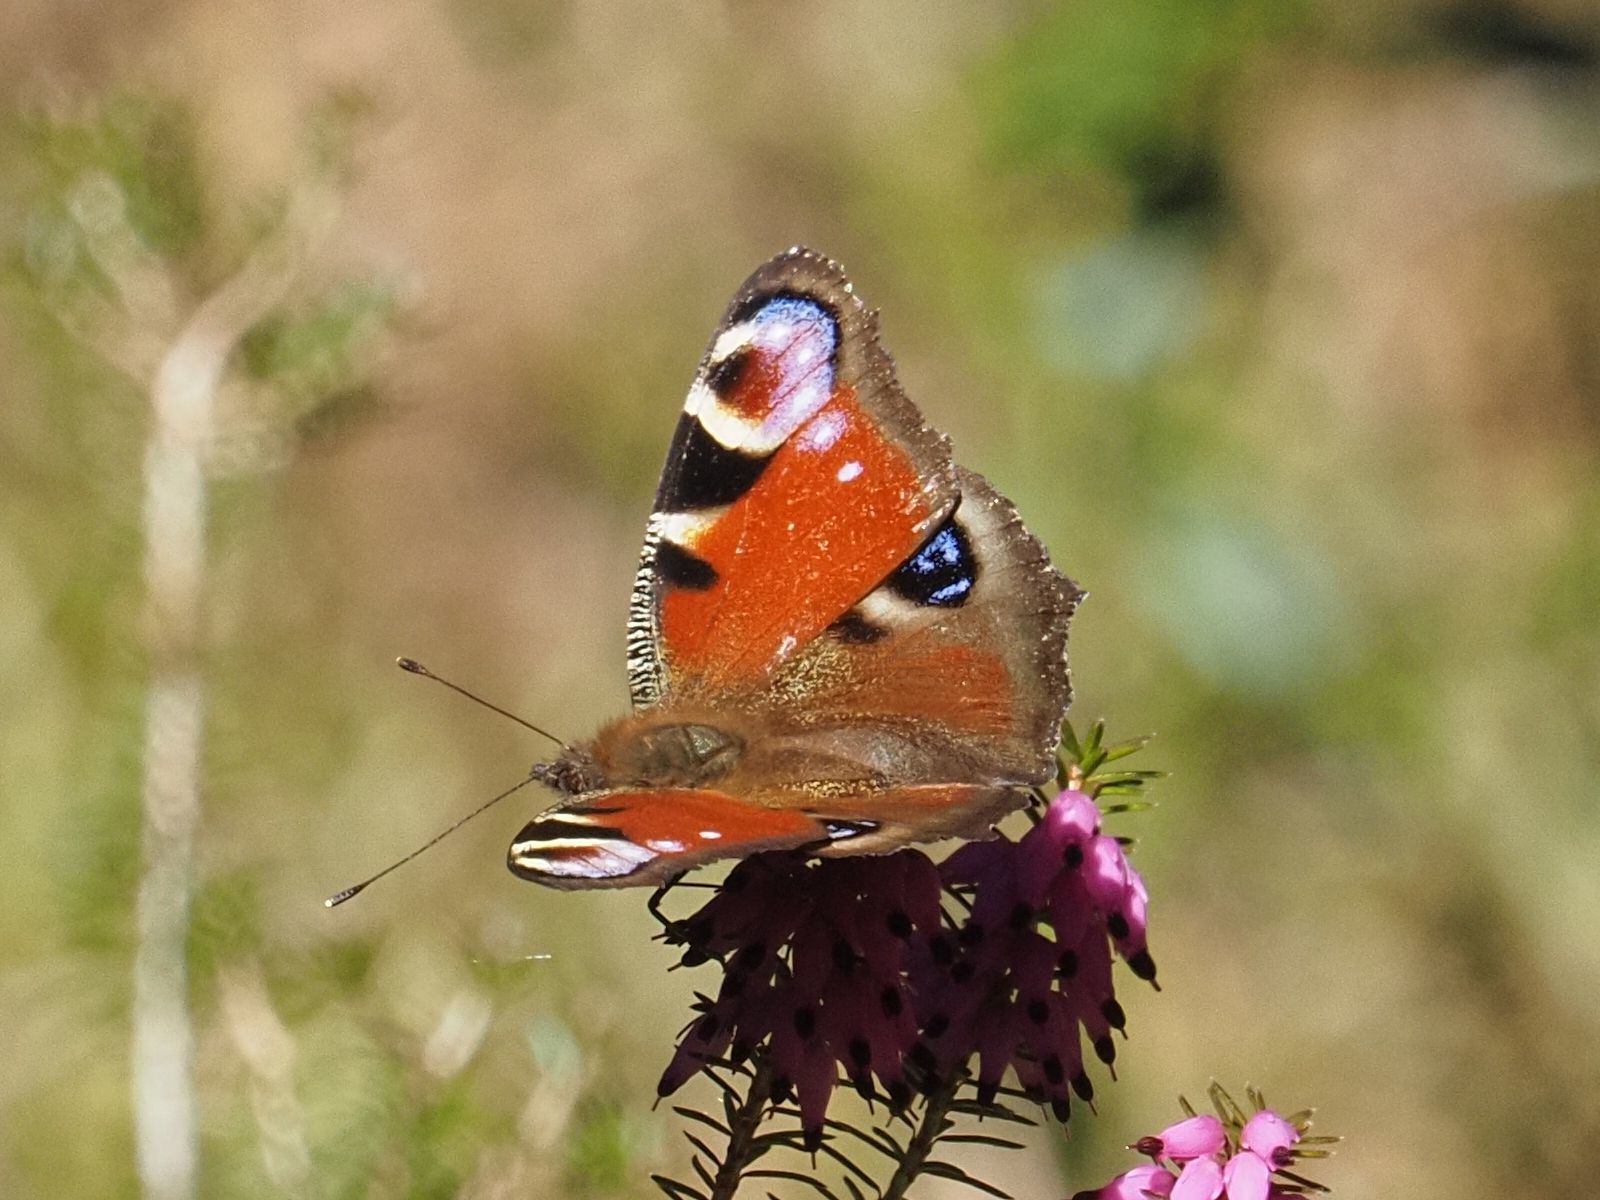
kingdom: Animalia
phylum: Arthropoda
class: Insecta
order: Lepidoptera
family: Nymphalidae
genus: Aglais
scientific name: Aglais io
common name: Peacock
